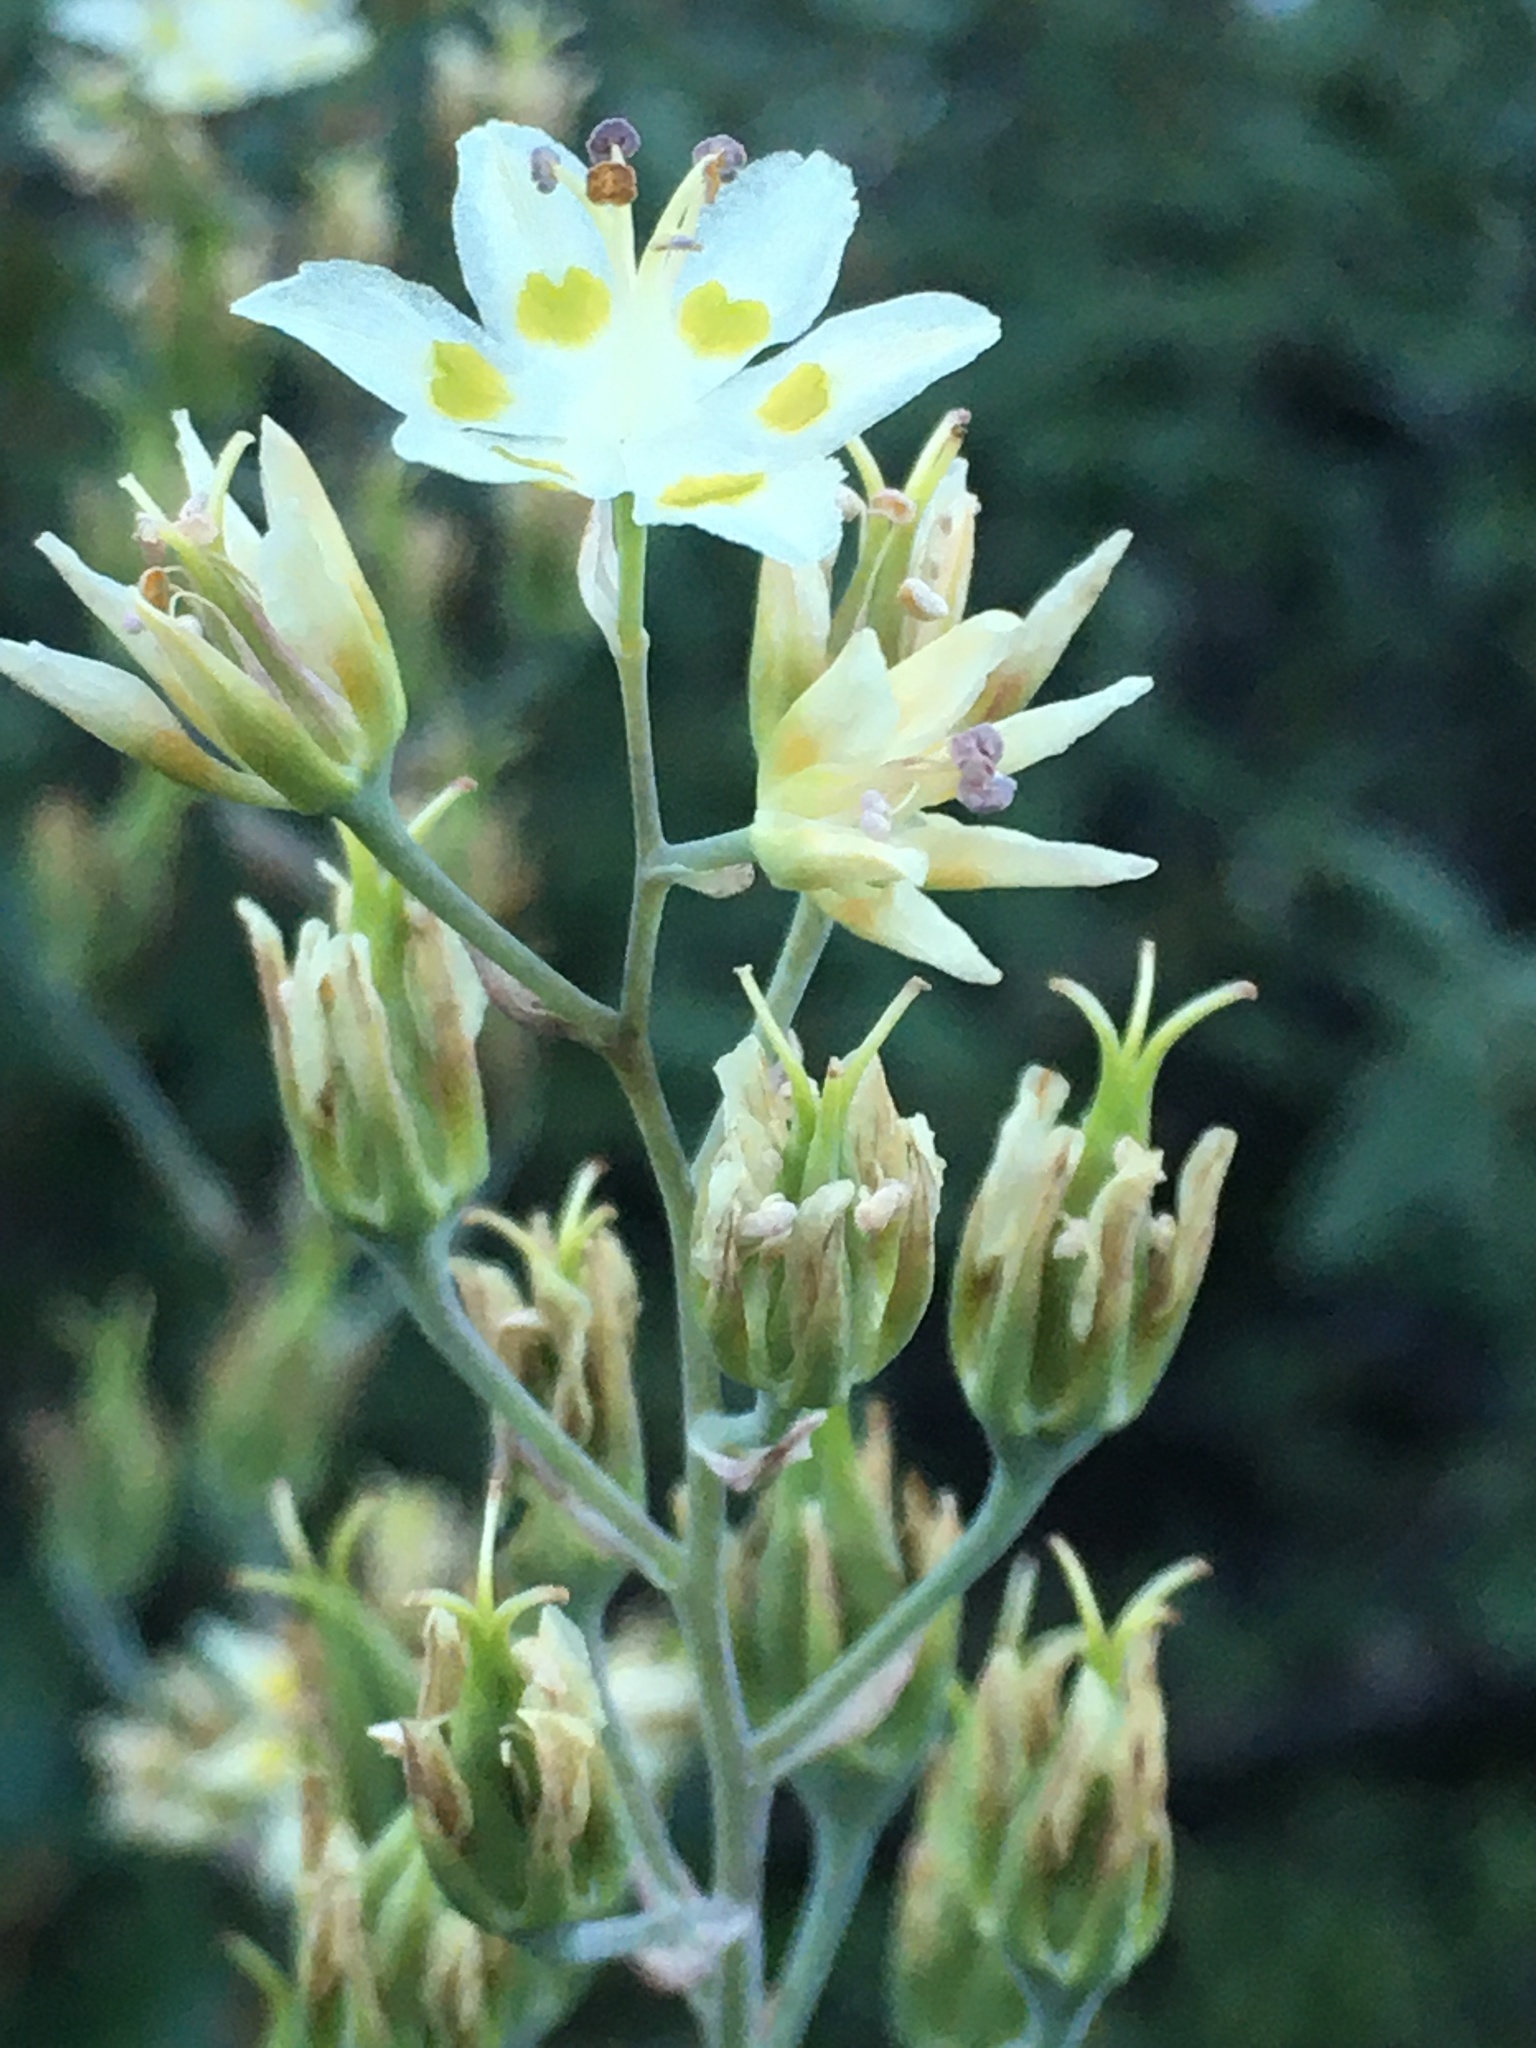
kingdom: Plantae
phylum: Tracheophyta
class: Liliopsida
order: Liliales
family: Melanthiaceae
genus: Anticlea
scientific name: Anticlea elegans
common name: Mountain death camas
